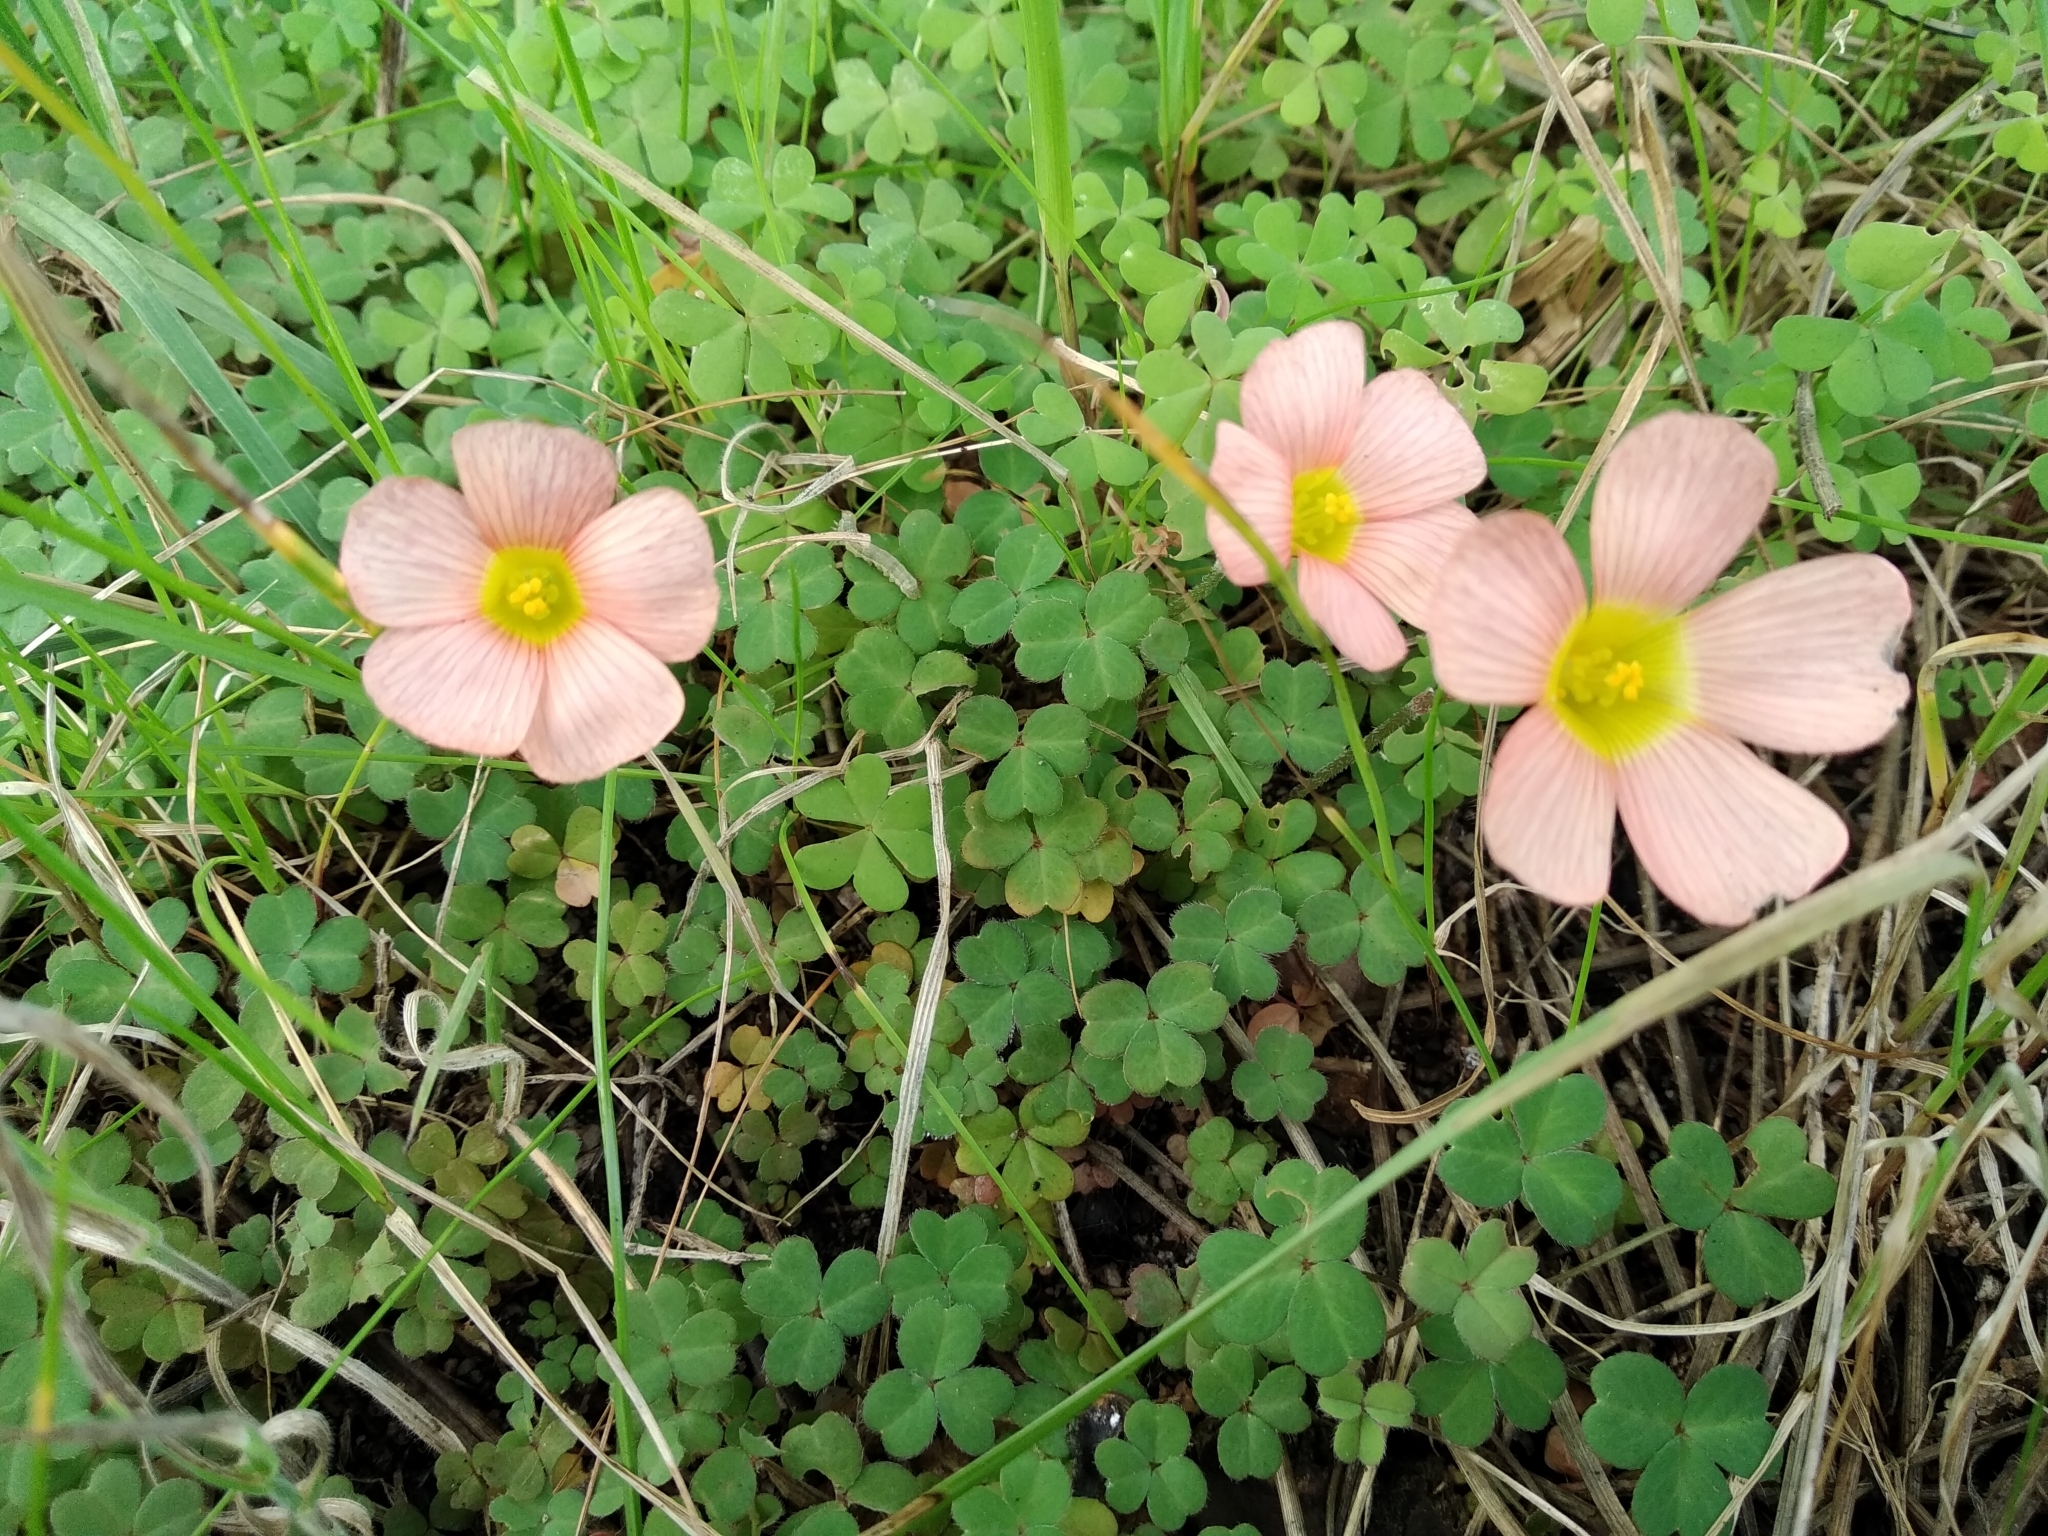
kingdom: Plantae
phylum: Tracheophyta
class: Magnoliopsida
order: Oxalidales
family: Oxalidaceae
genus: Oxalis
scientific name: Oxalis obtusa
